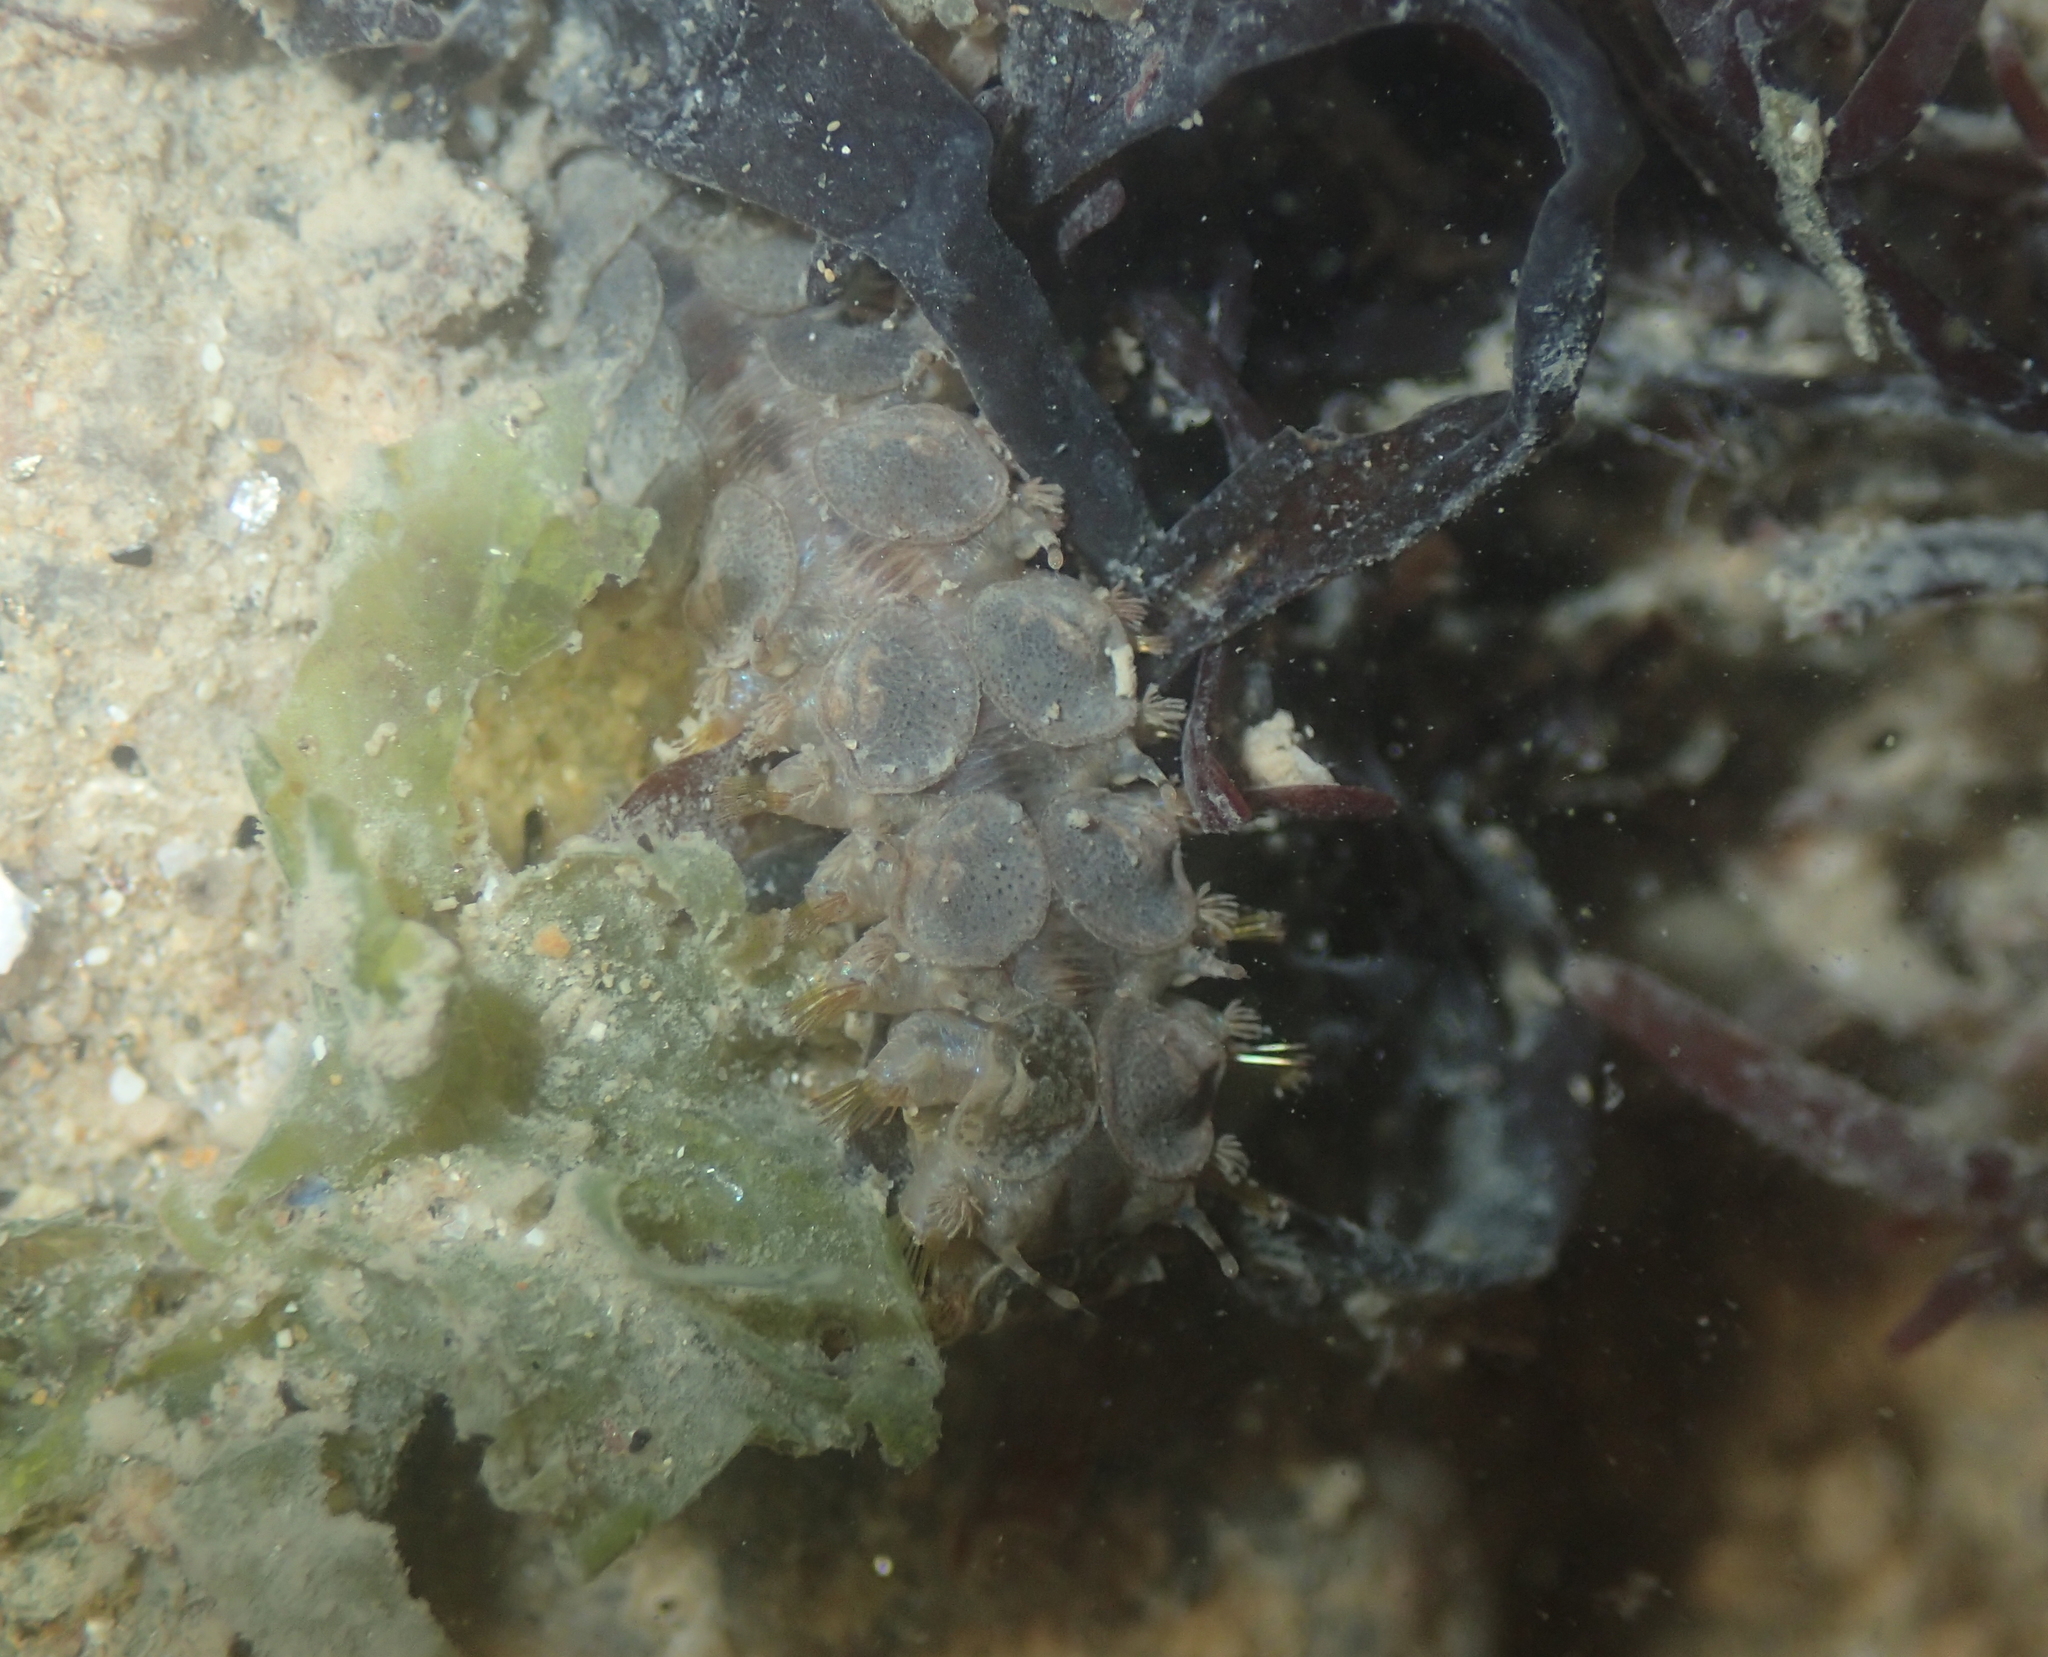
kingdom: Animalia
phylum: Annelida
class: Polychaeta
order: Phyllodocida
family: Polynoidae
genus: Lepidonotus
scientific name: Lepidonotus clava
